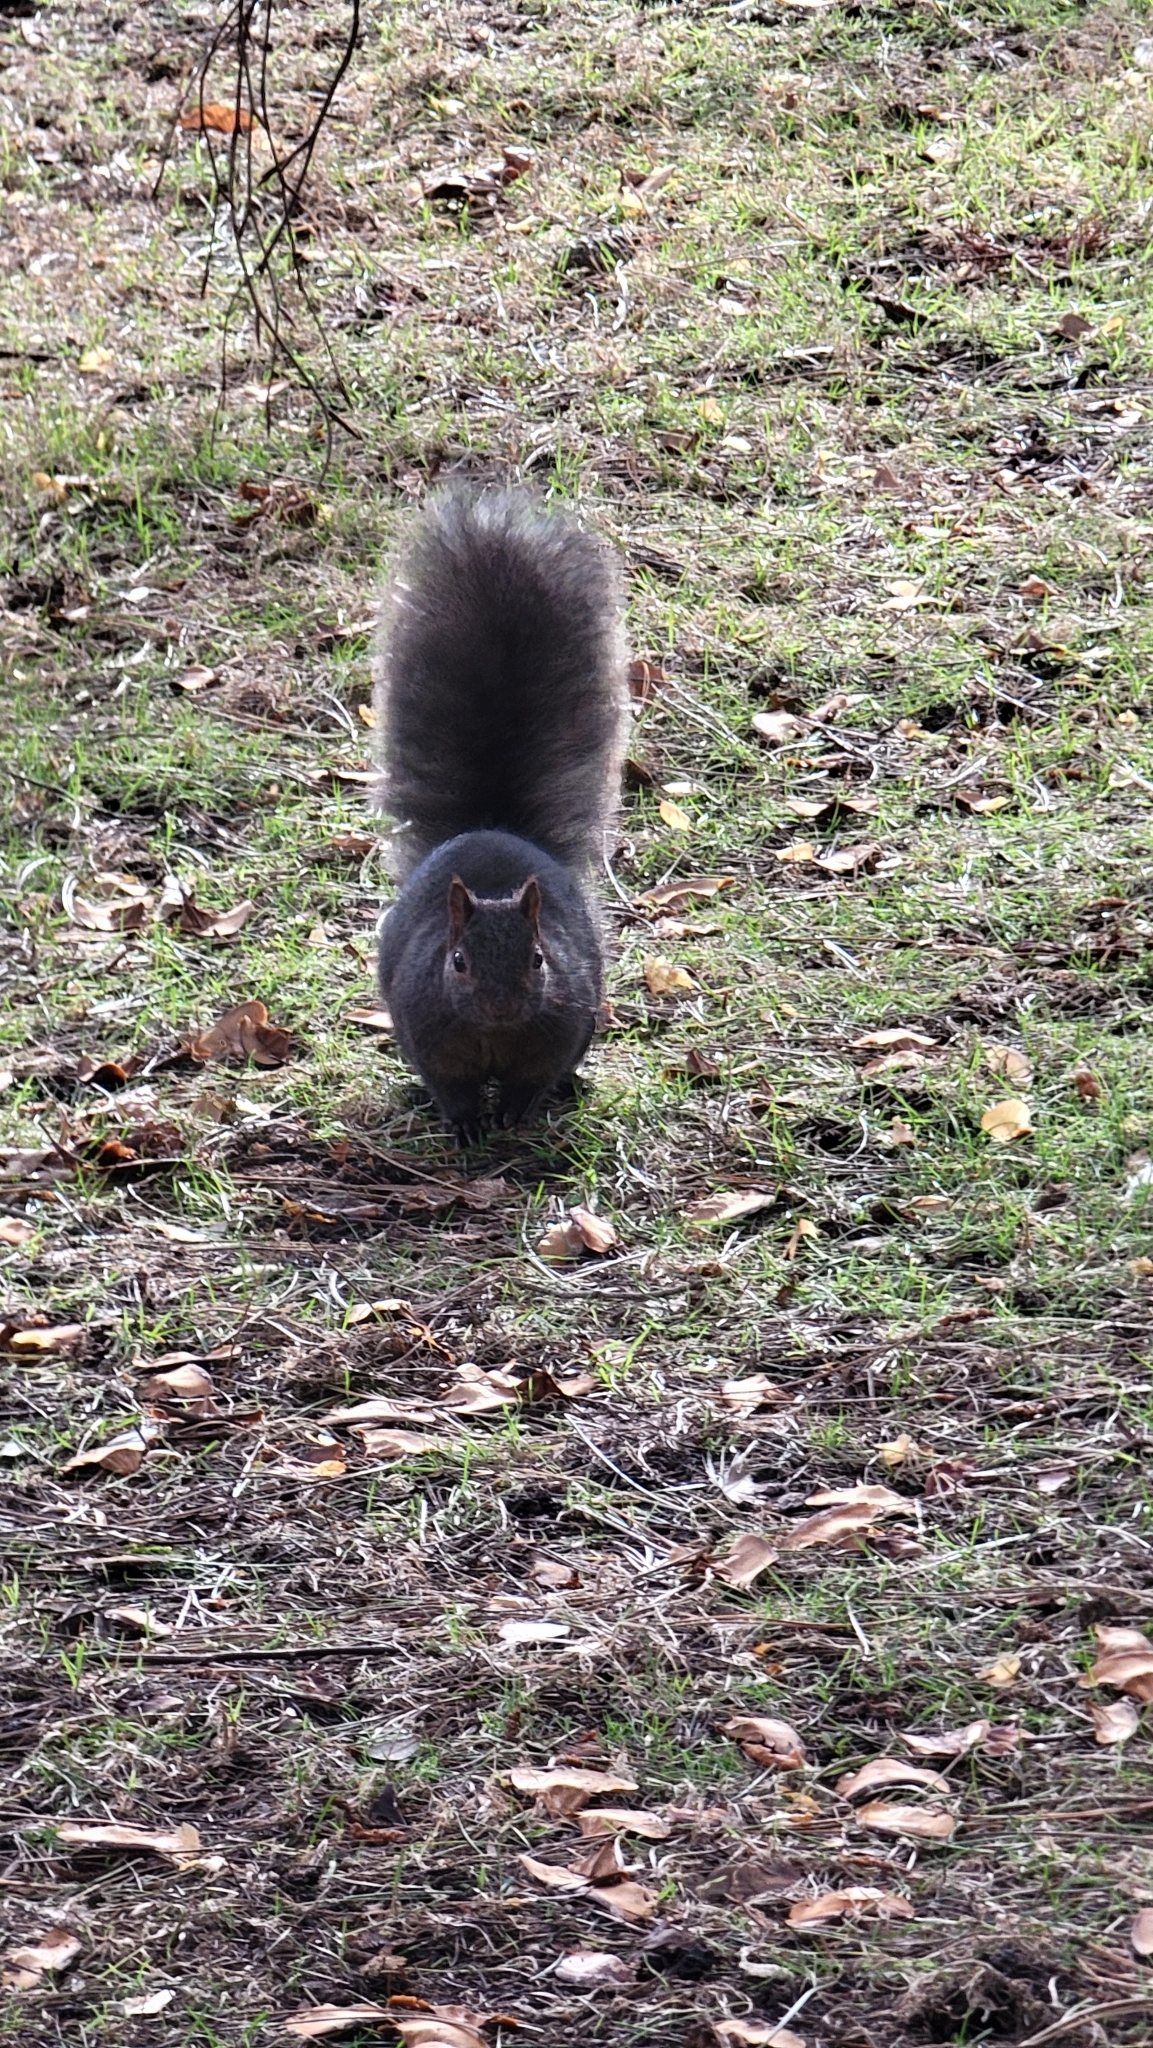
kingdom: Animalia
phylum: Chordata
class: Mammalia
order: Rodentia
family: Sciuridae
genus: Sciurus
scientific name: Sciurus carolinensis
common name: Eastern gray squirrel
